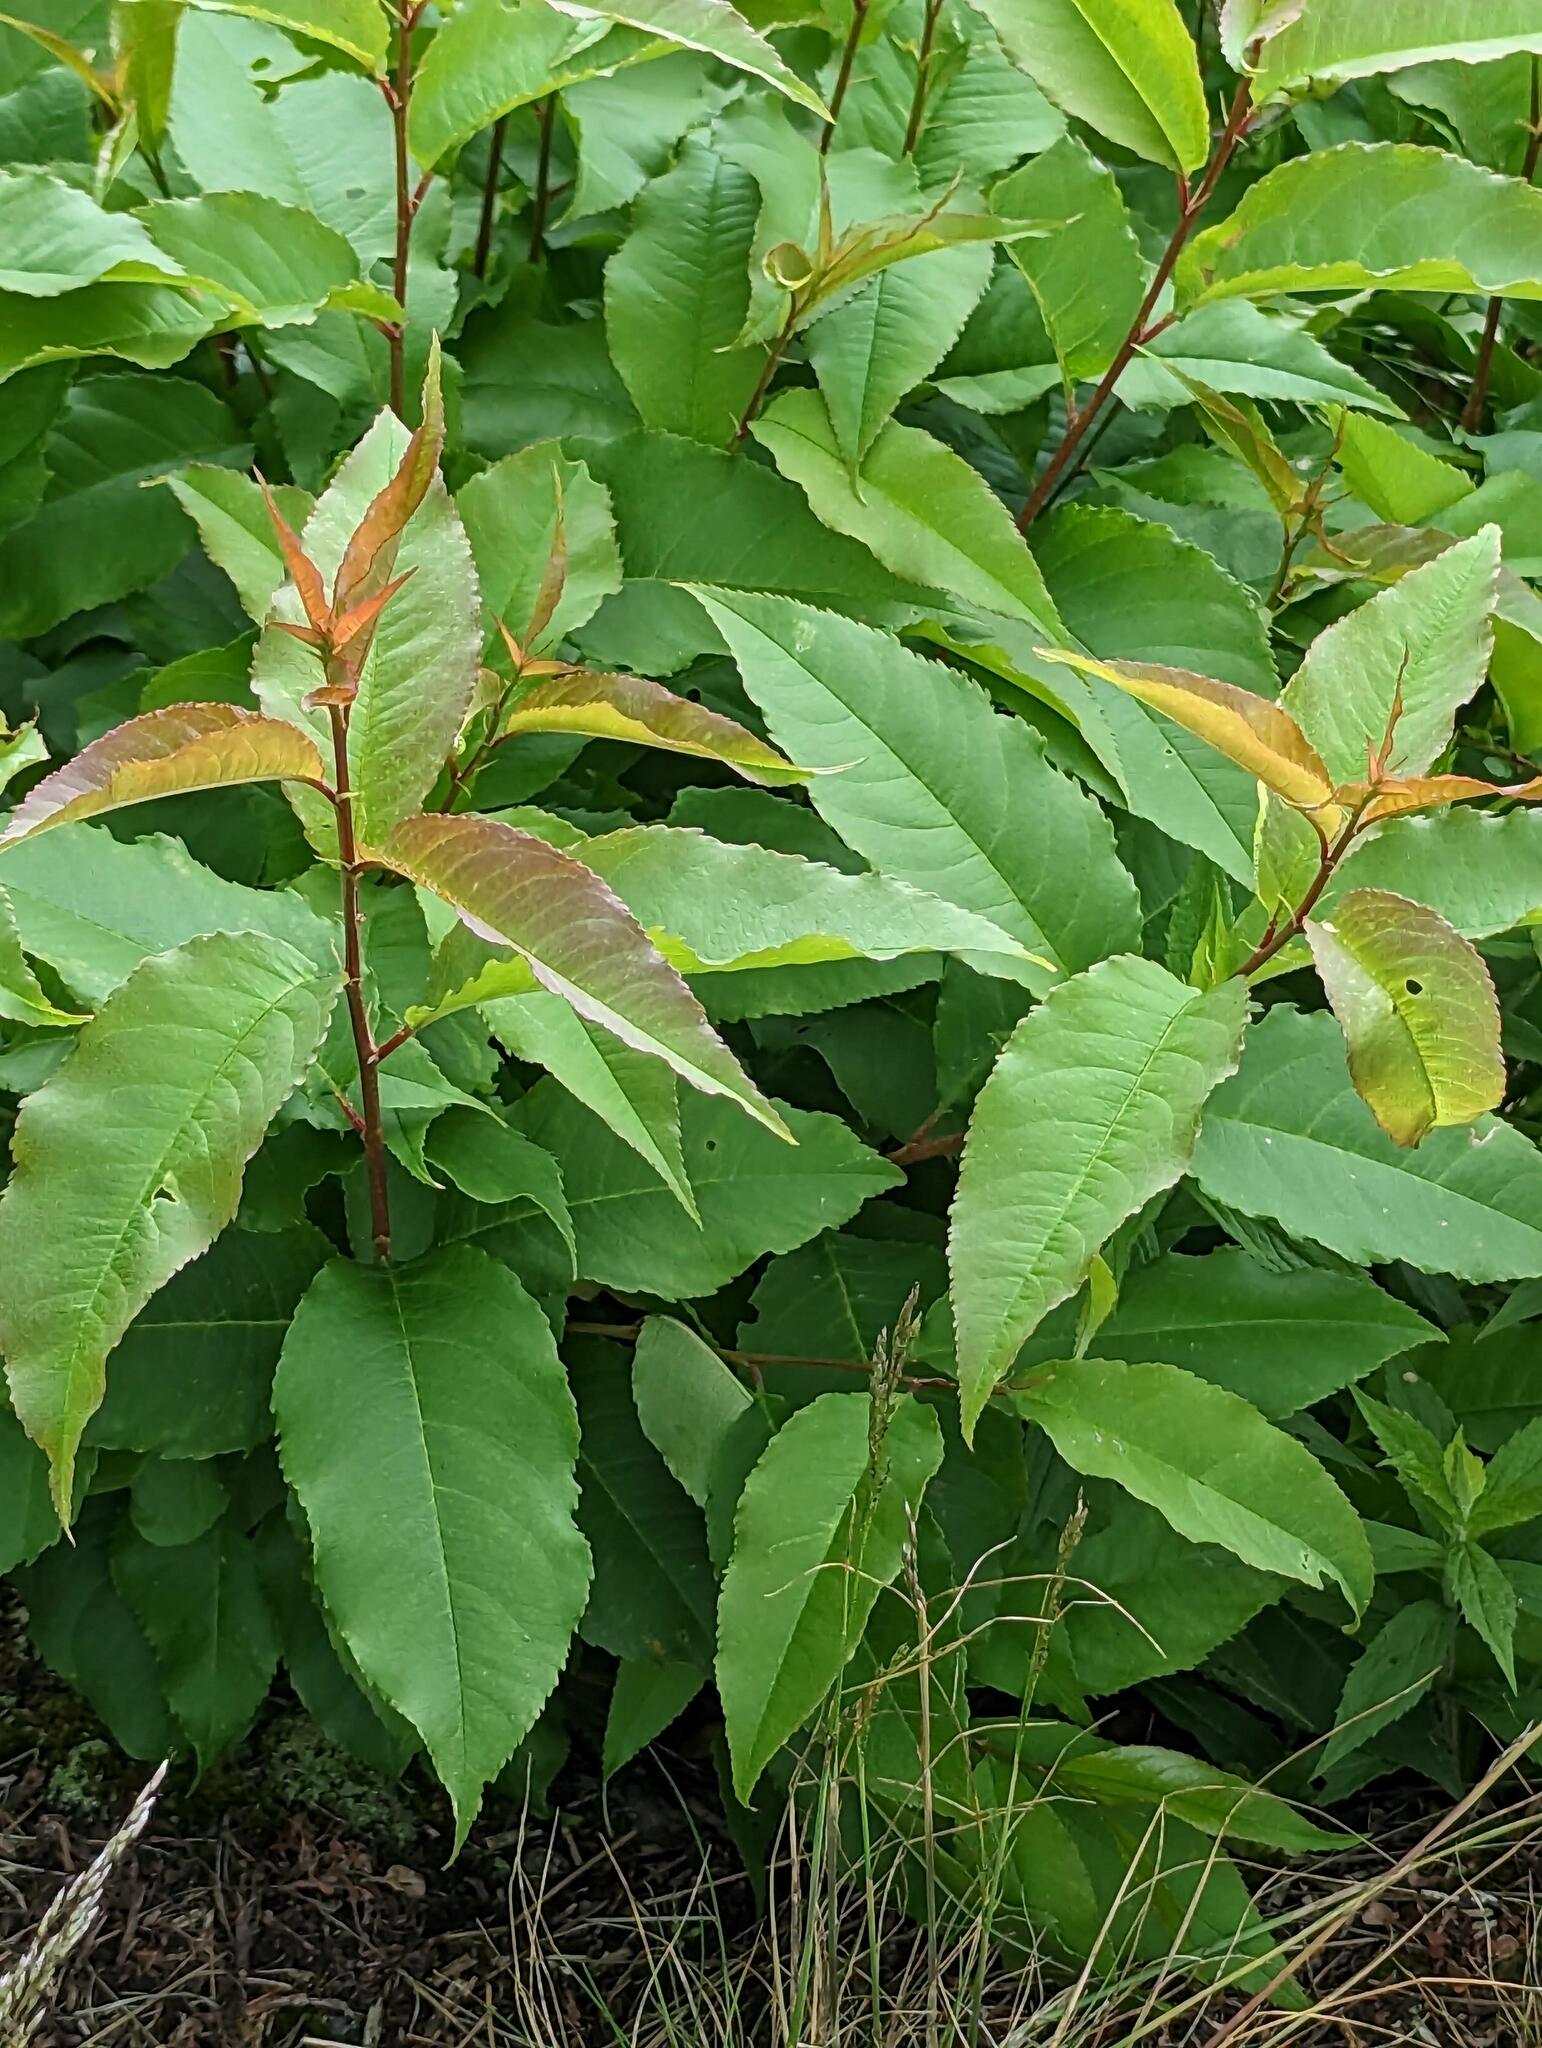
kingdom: Plantae
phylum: Tracheophyta
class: Magnoliopsida
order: Rosales
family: Rosaceae
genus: Prunus
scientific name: Prunus pensylvanica
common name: Pin cherry
